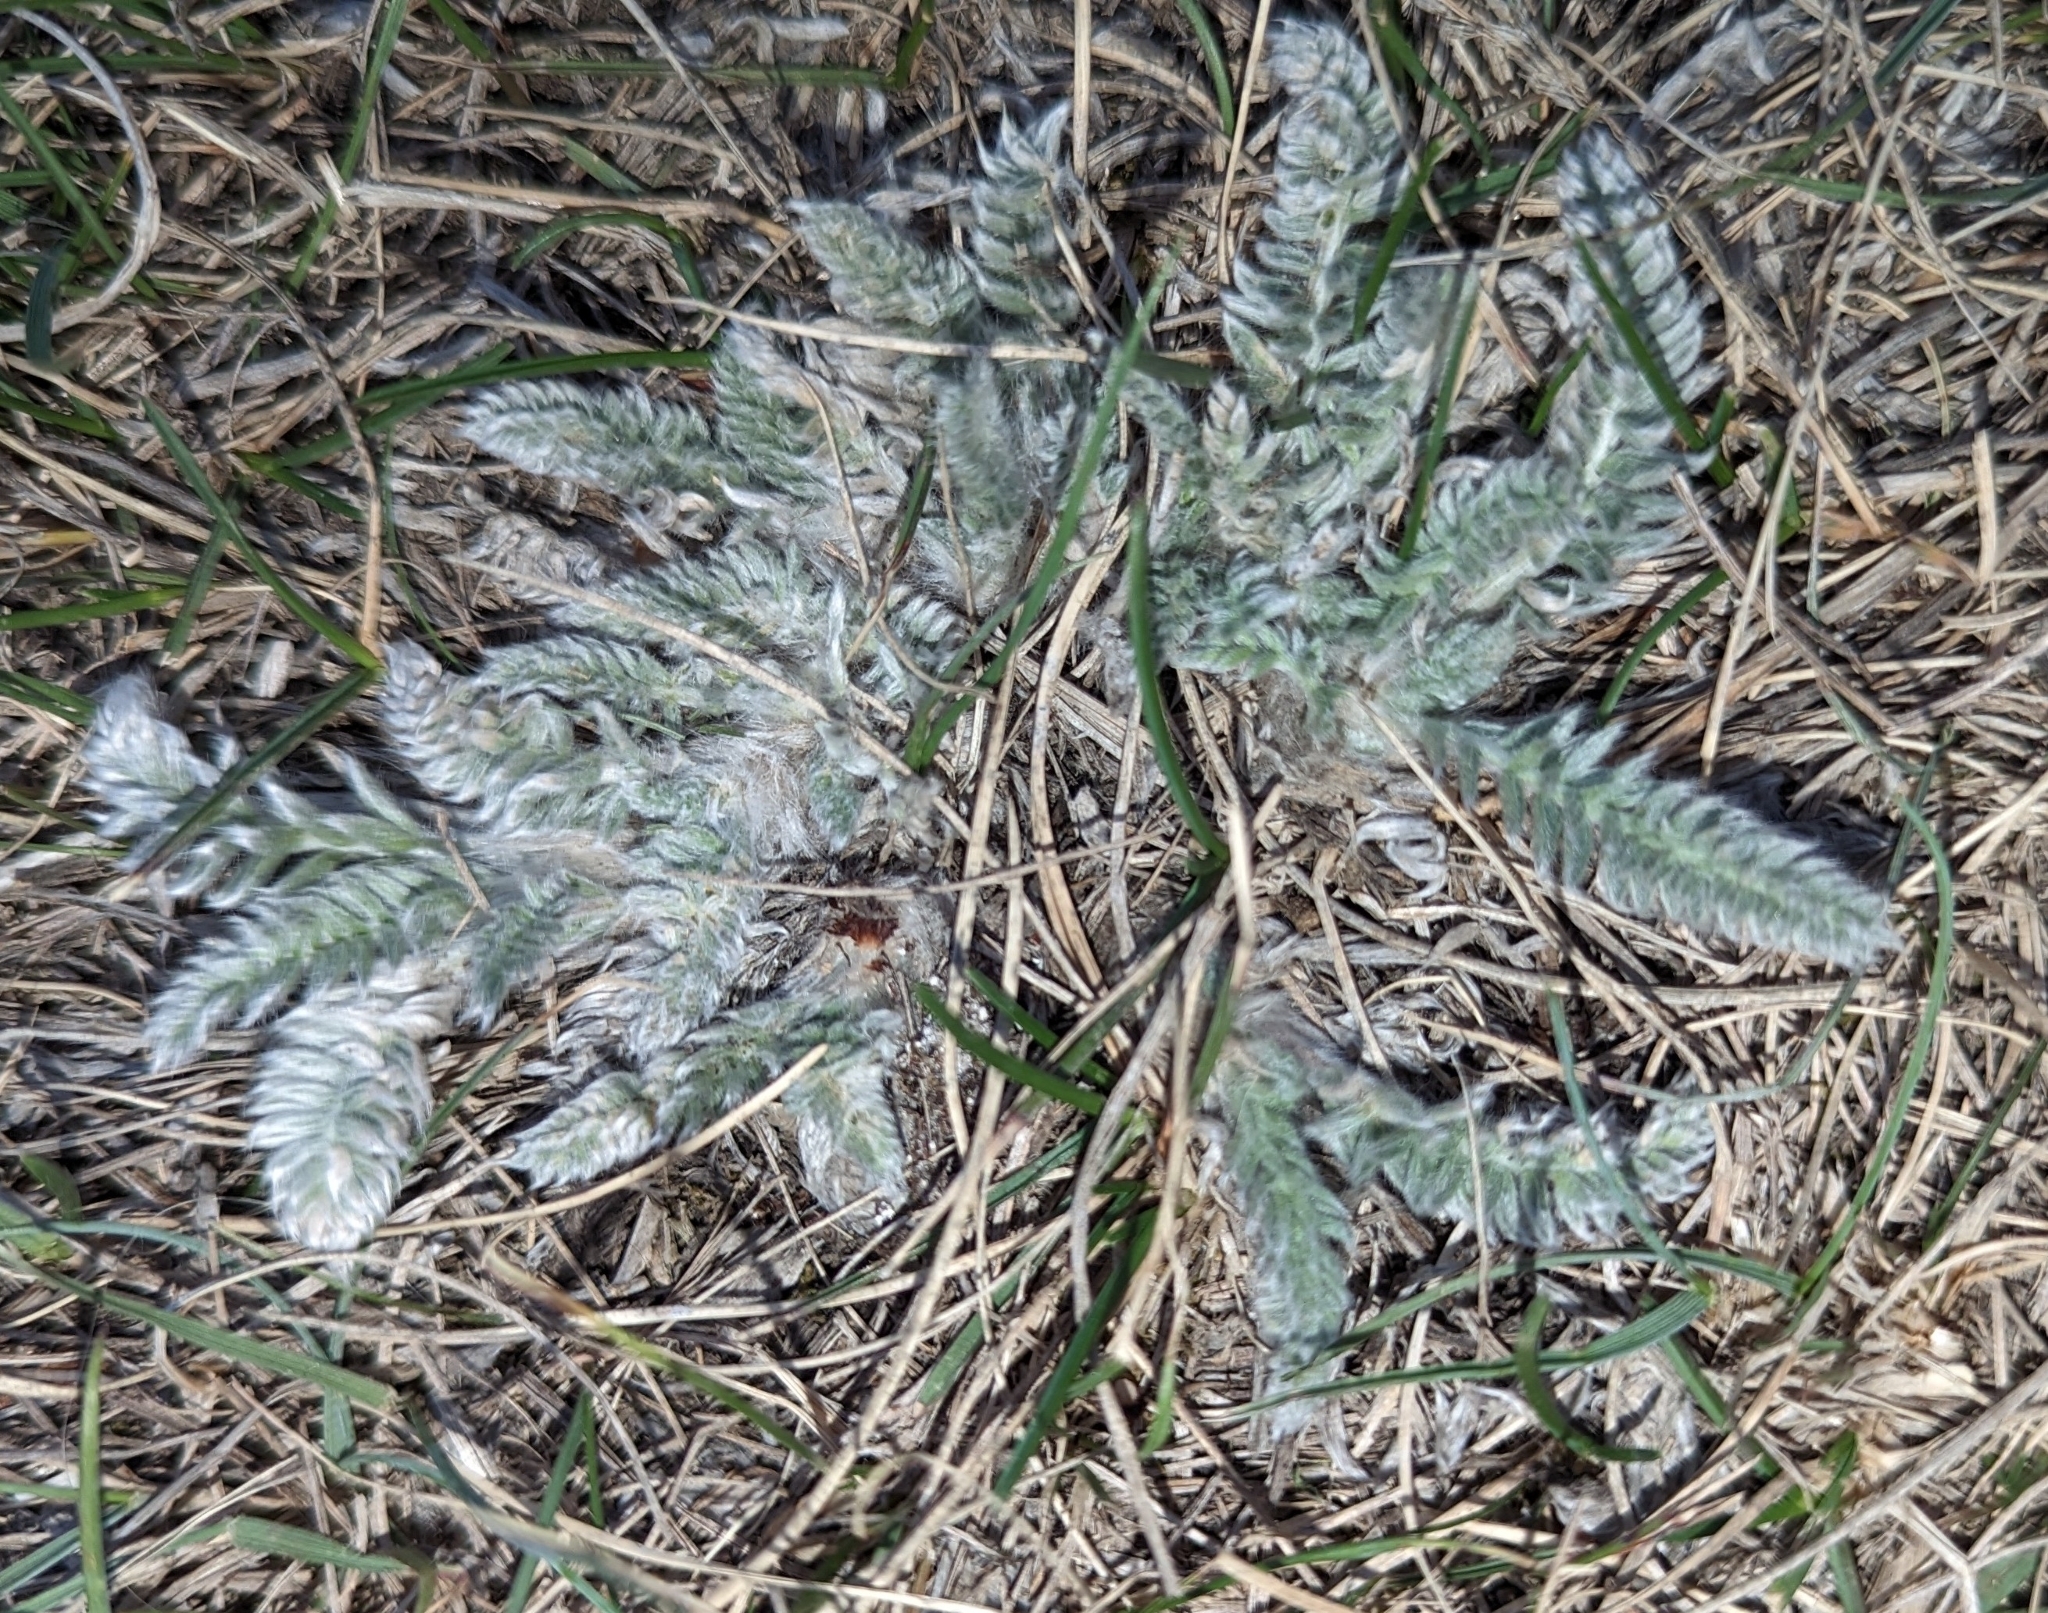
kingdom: Plantae
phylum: Tracheophyta
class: Magnoliopsida
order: Fabales
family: Fabaceae
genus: Oxytropis
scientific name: Oxytropis splendens
